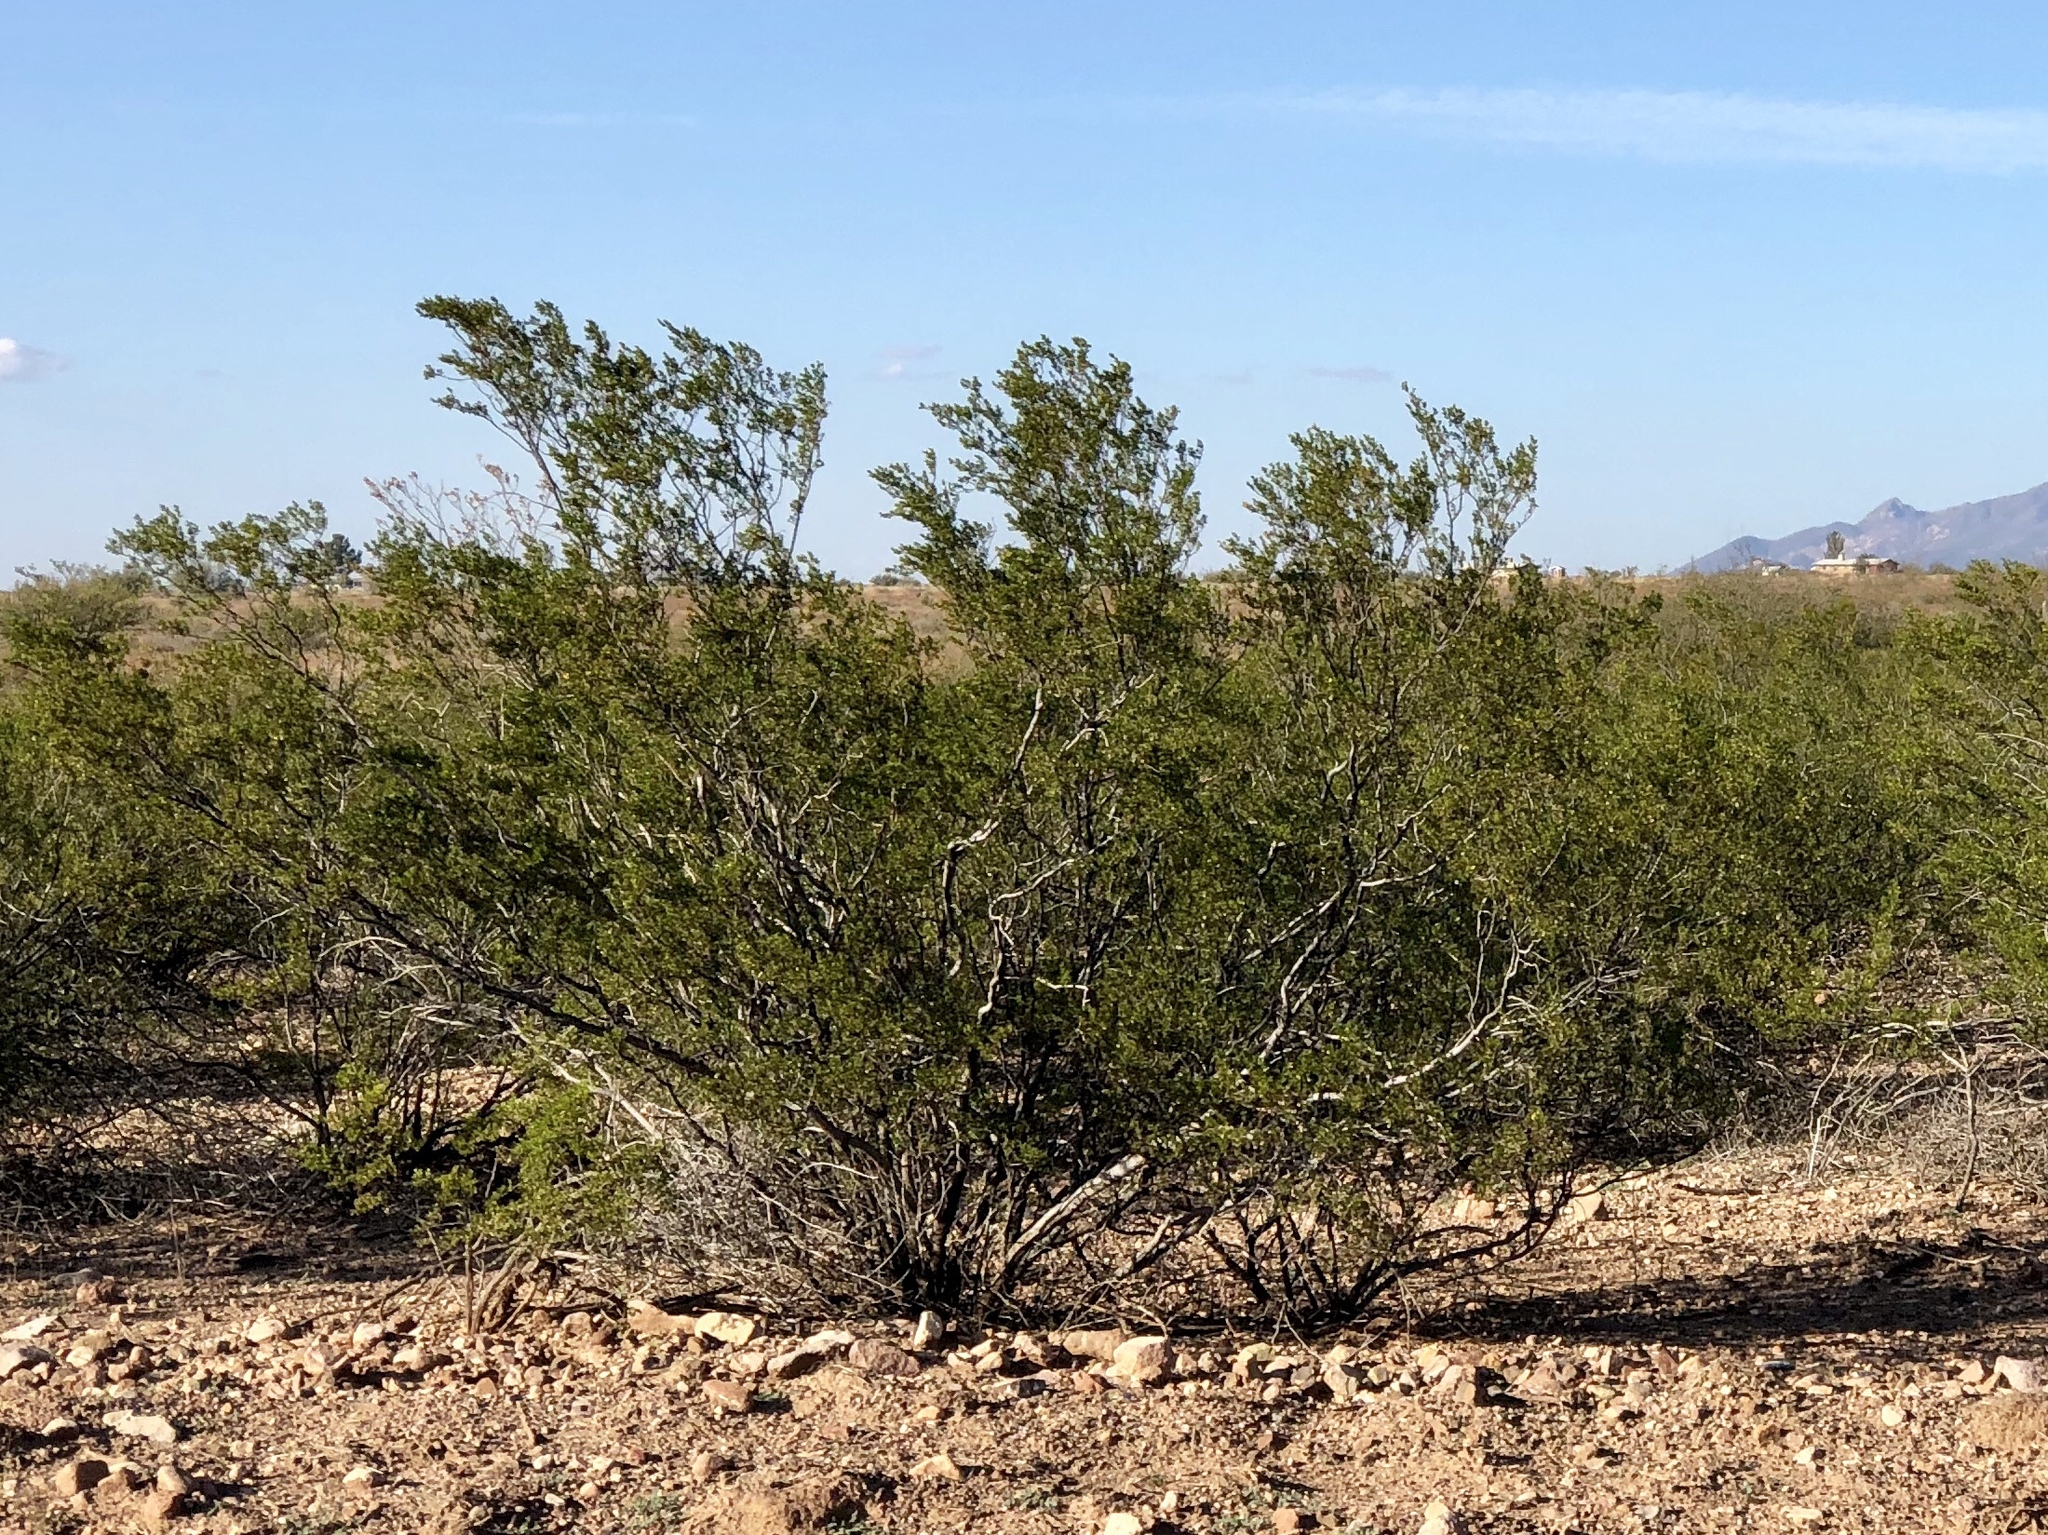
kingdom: Plantae
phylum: Tracheophyta
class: Magnoliopsida
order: Zygophyllales
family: Zygophyllaceae
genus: Larrea
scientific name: Larrea tridentata
